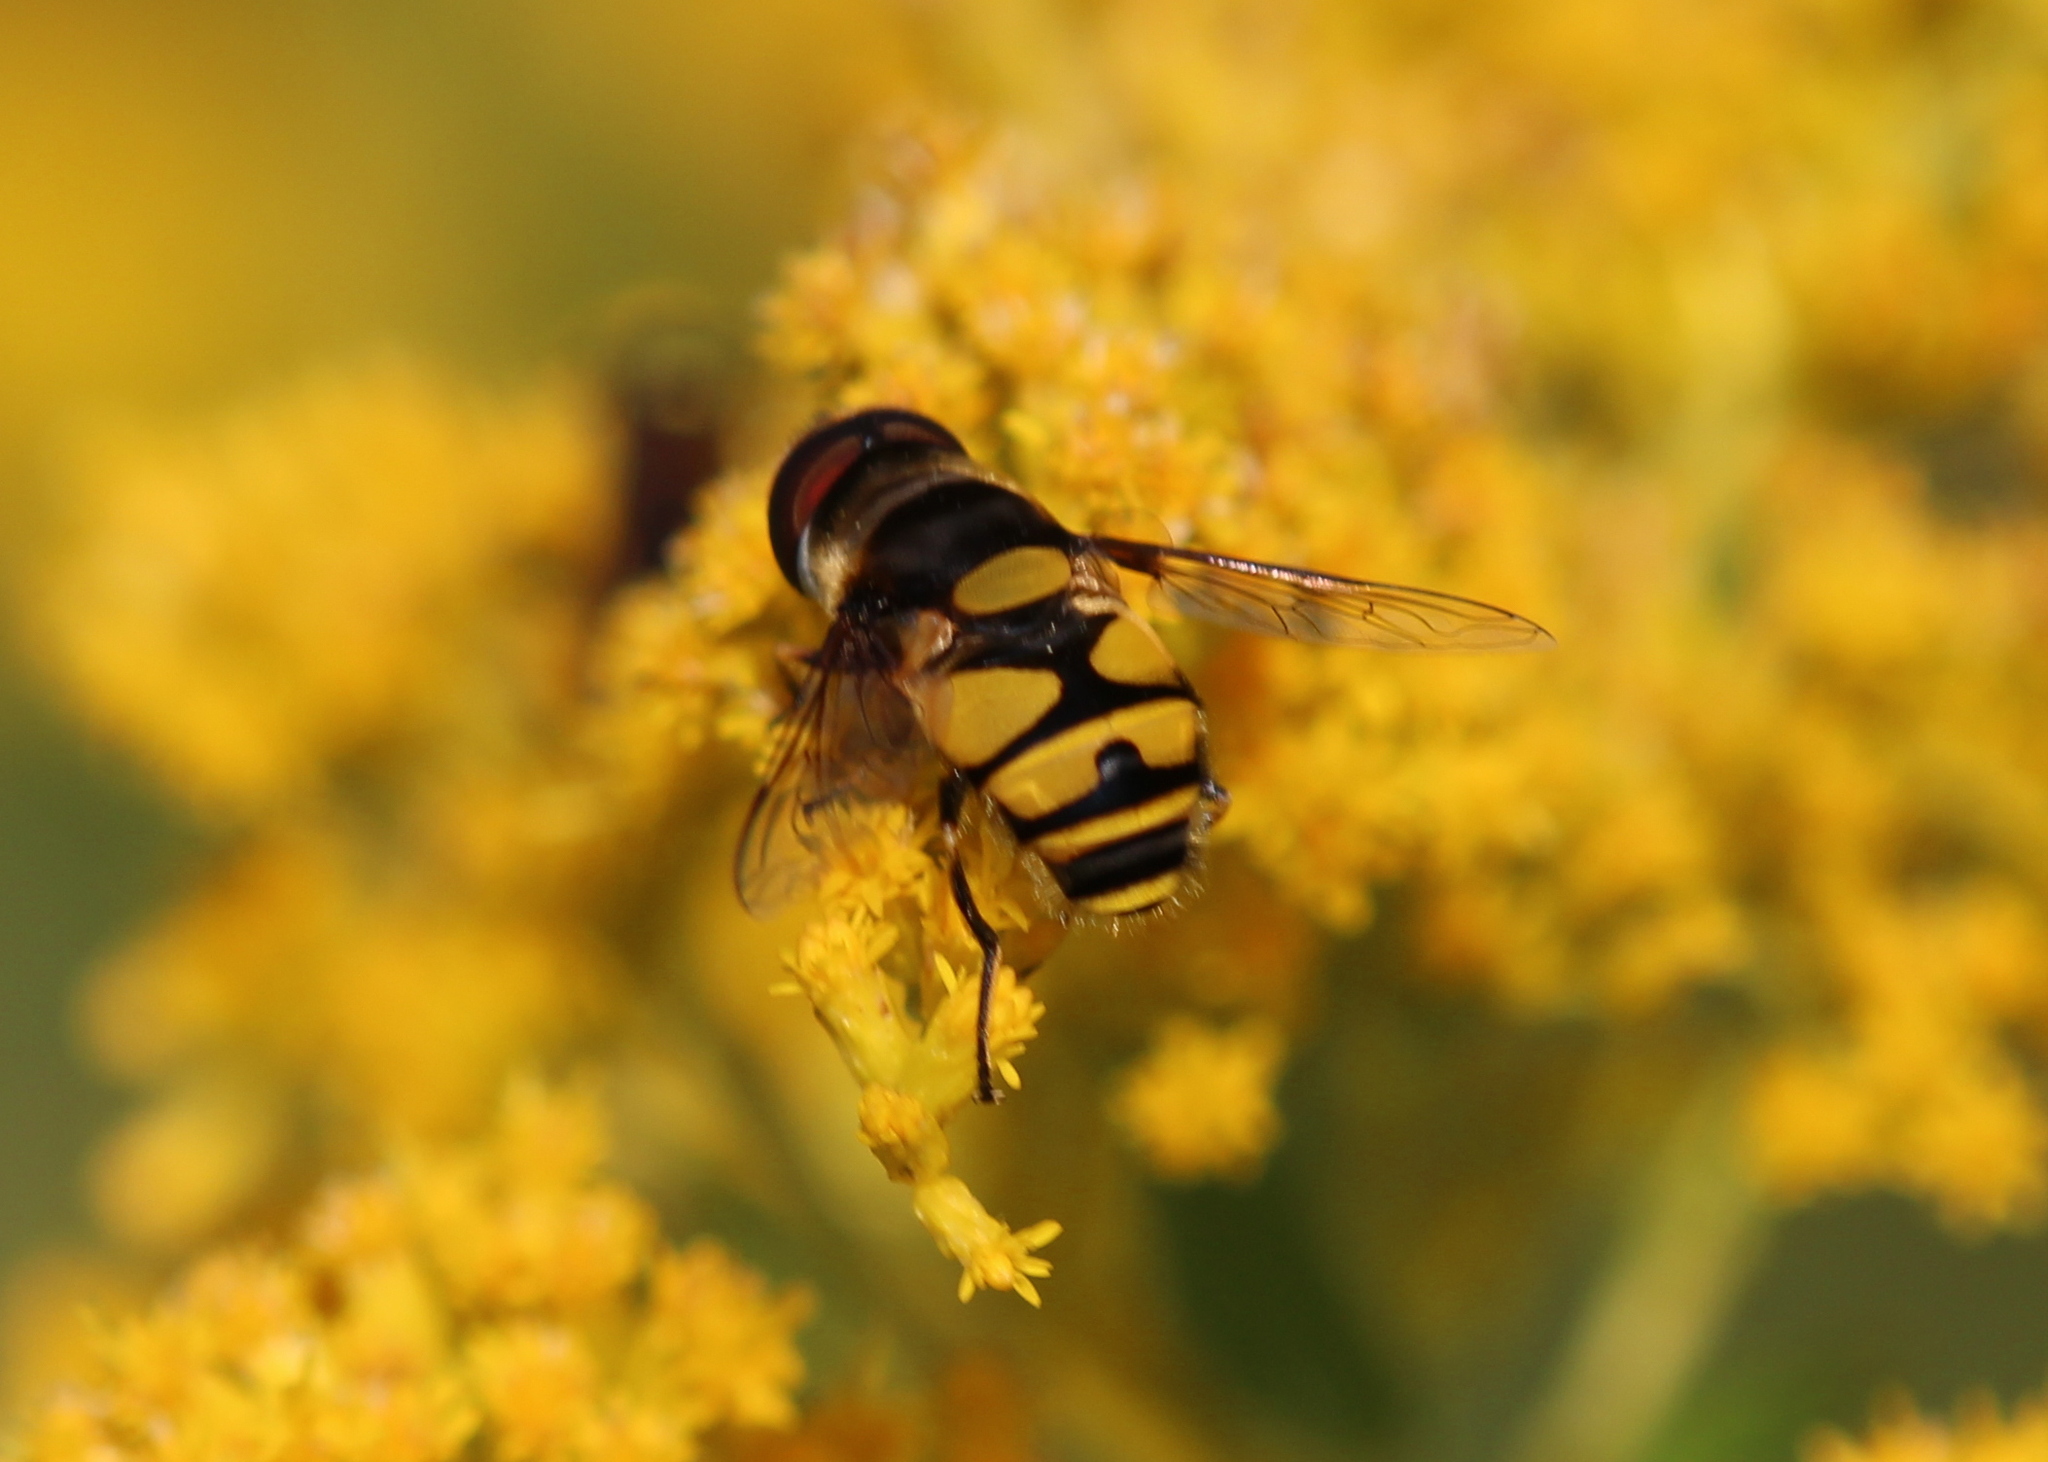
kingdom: Animalia
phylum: Arthropoda
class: Insecta
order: Diptera
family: Syrphidae
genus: Eristalis
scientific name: Eristalis transversa
